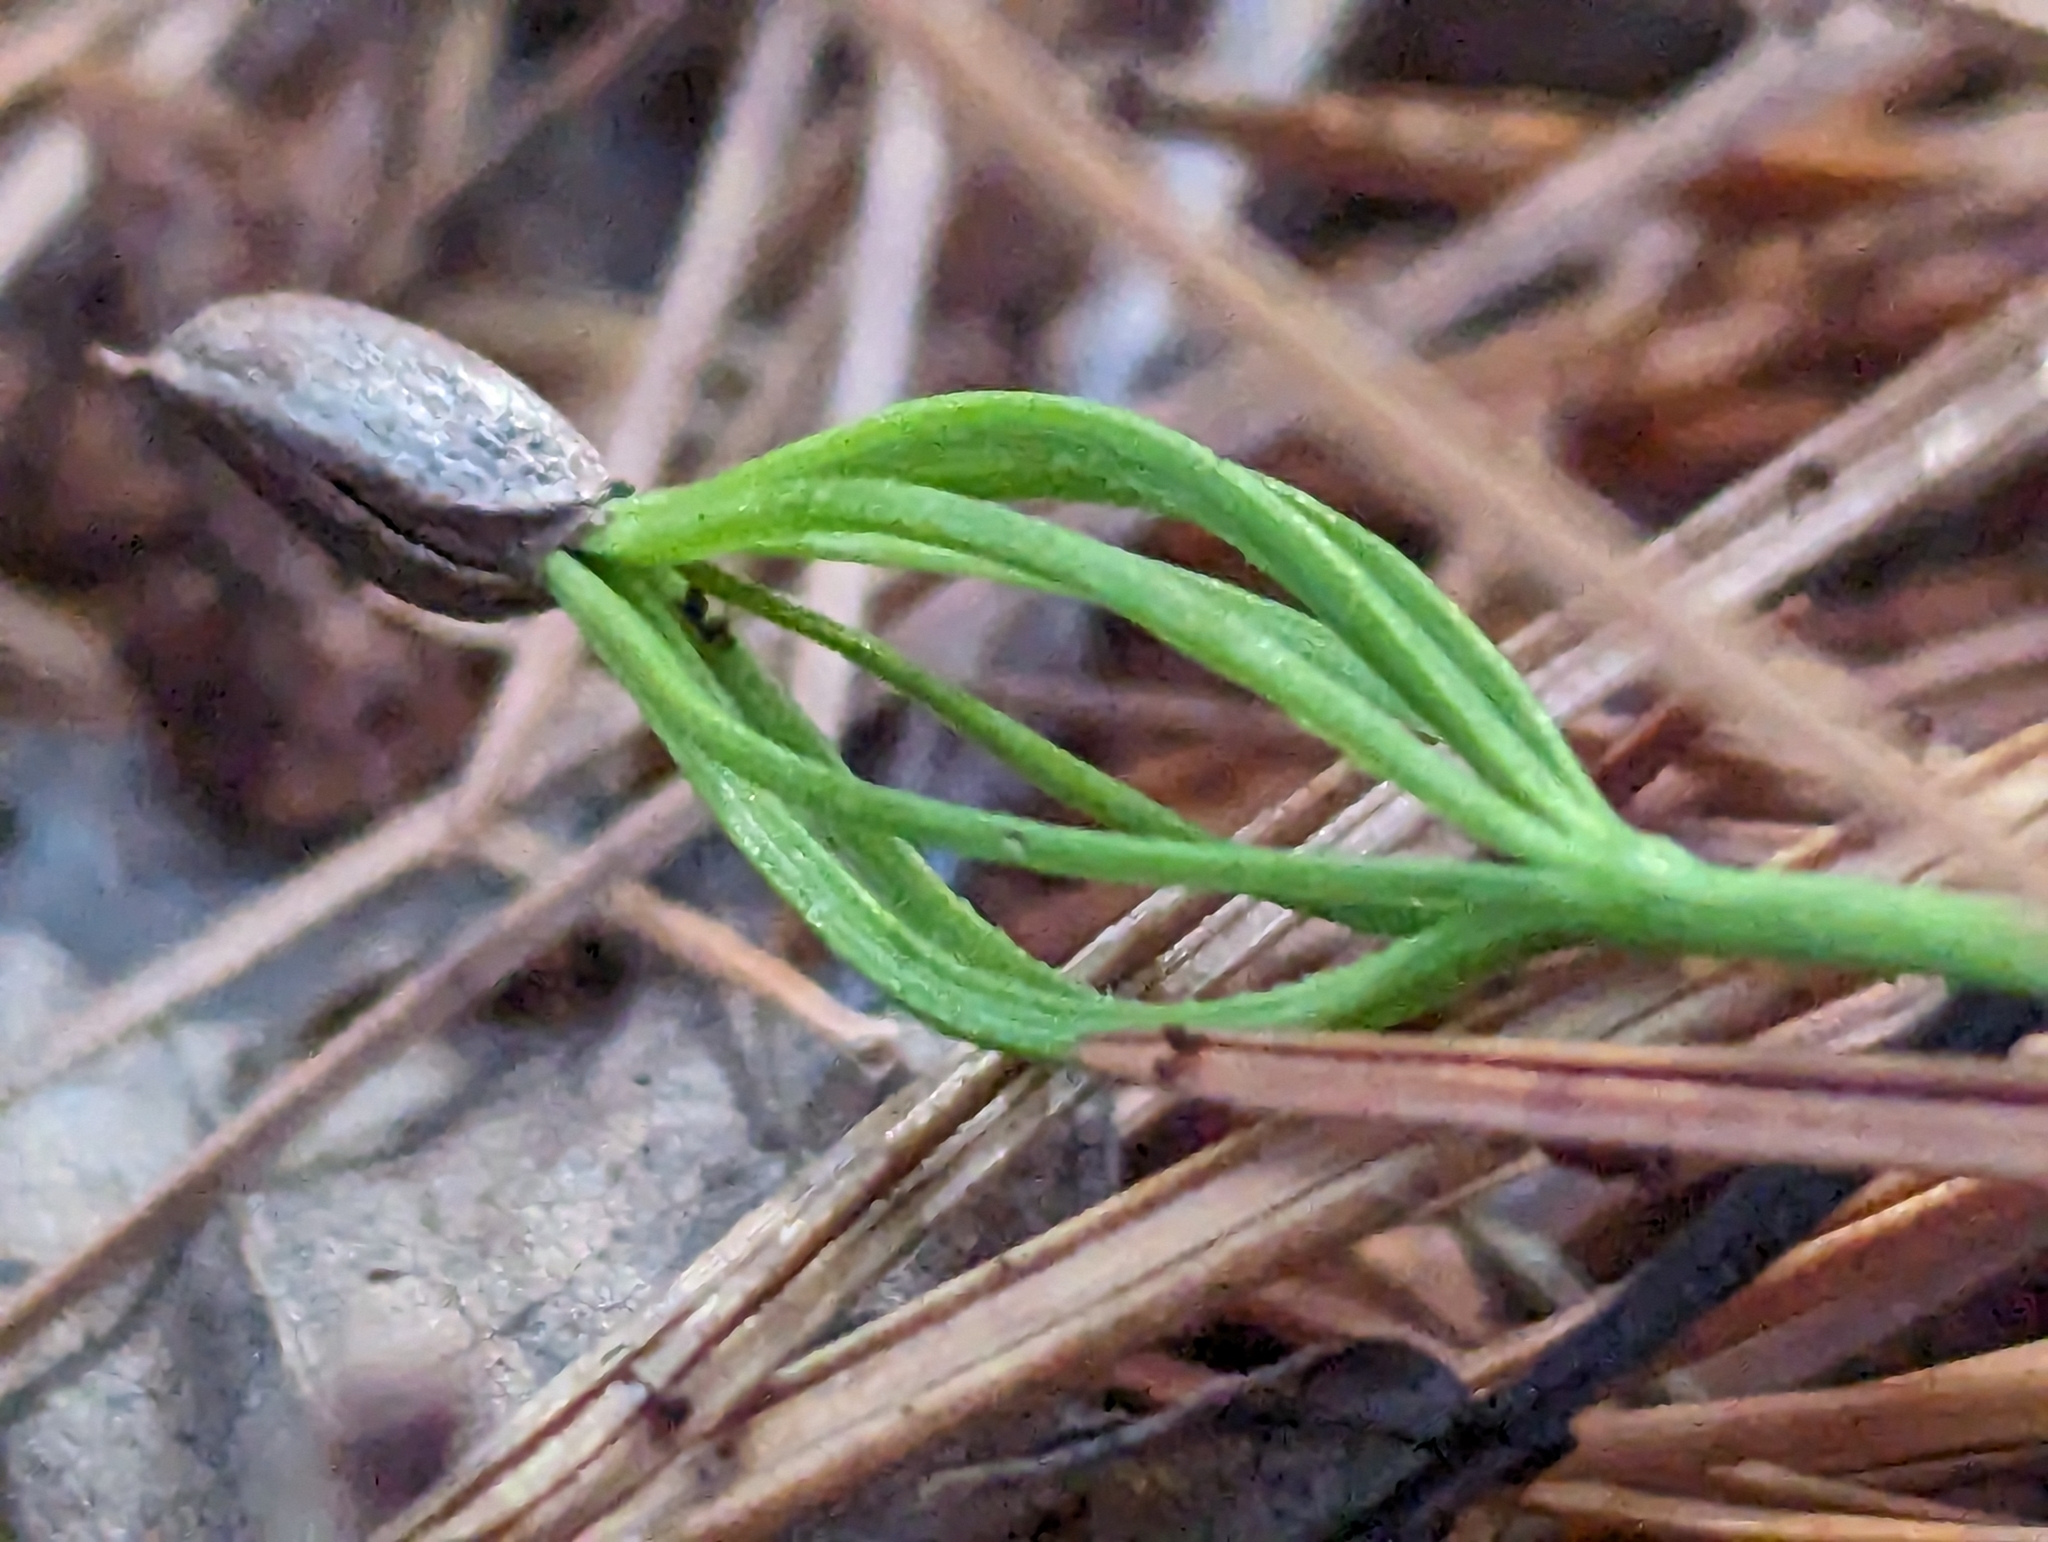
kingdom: Plantae
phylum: Tracheophyta
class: Pinopsida
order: Pinales
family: Pinaceae
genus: Pinus
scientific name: Pinus strobus
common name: Weymouth pine
